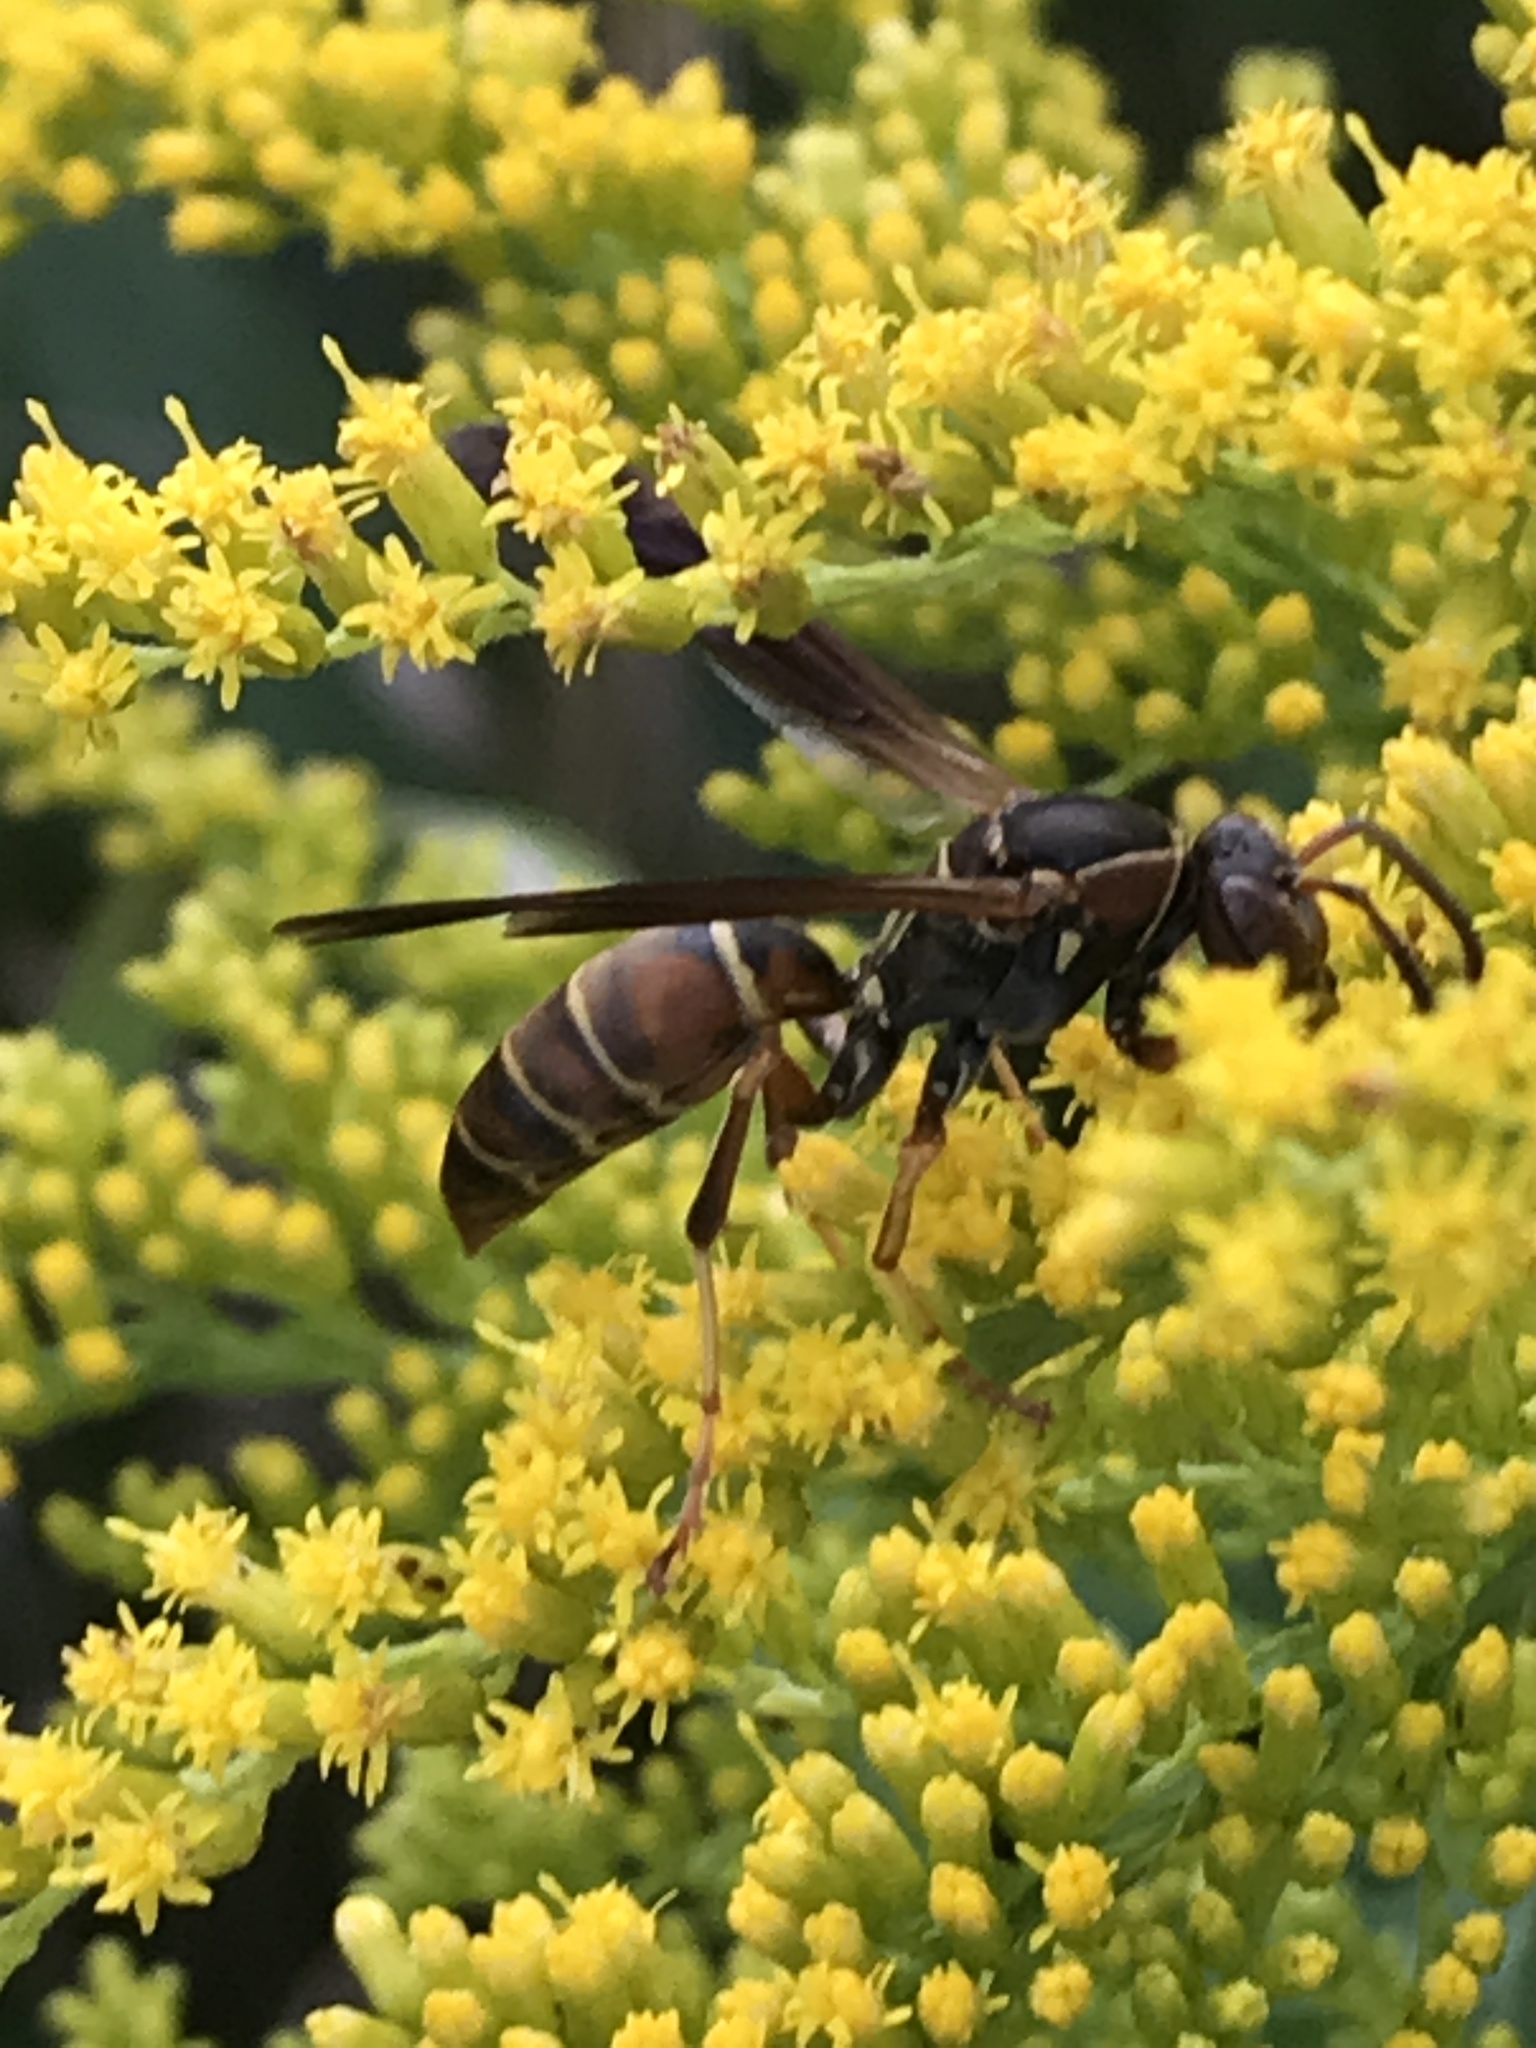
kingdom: Animalia
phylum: Arthropoda
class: Insecta
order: Hymenoptera
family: Eumenidae
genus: Polistes
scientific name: Polistes fuscatus
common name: Dark paper wasp
